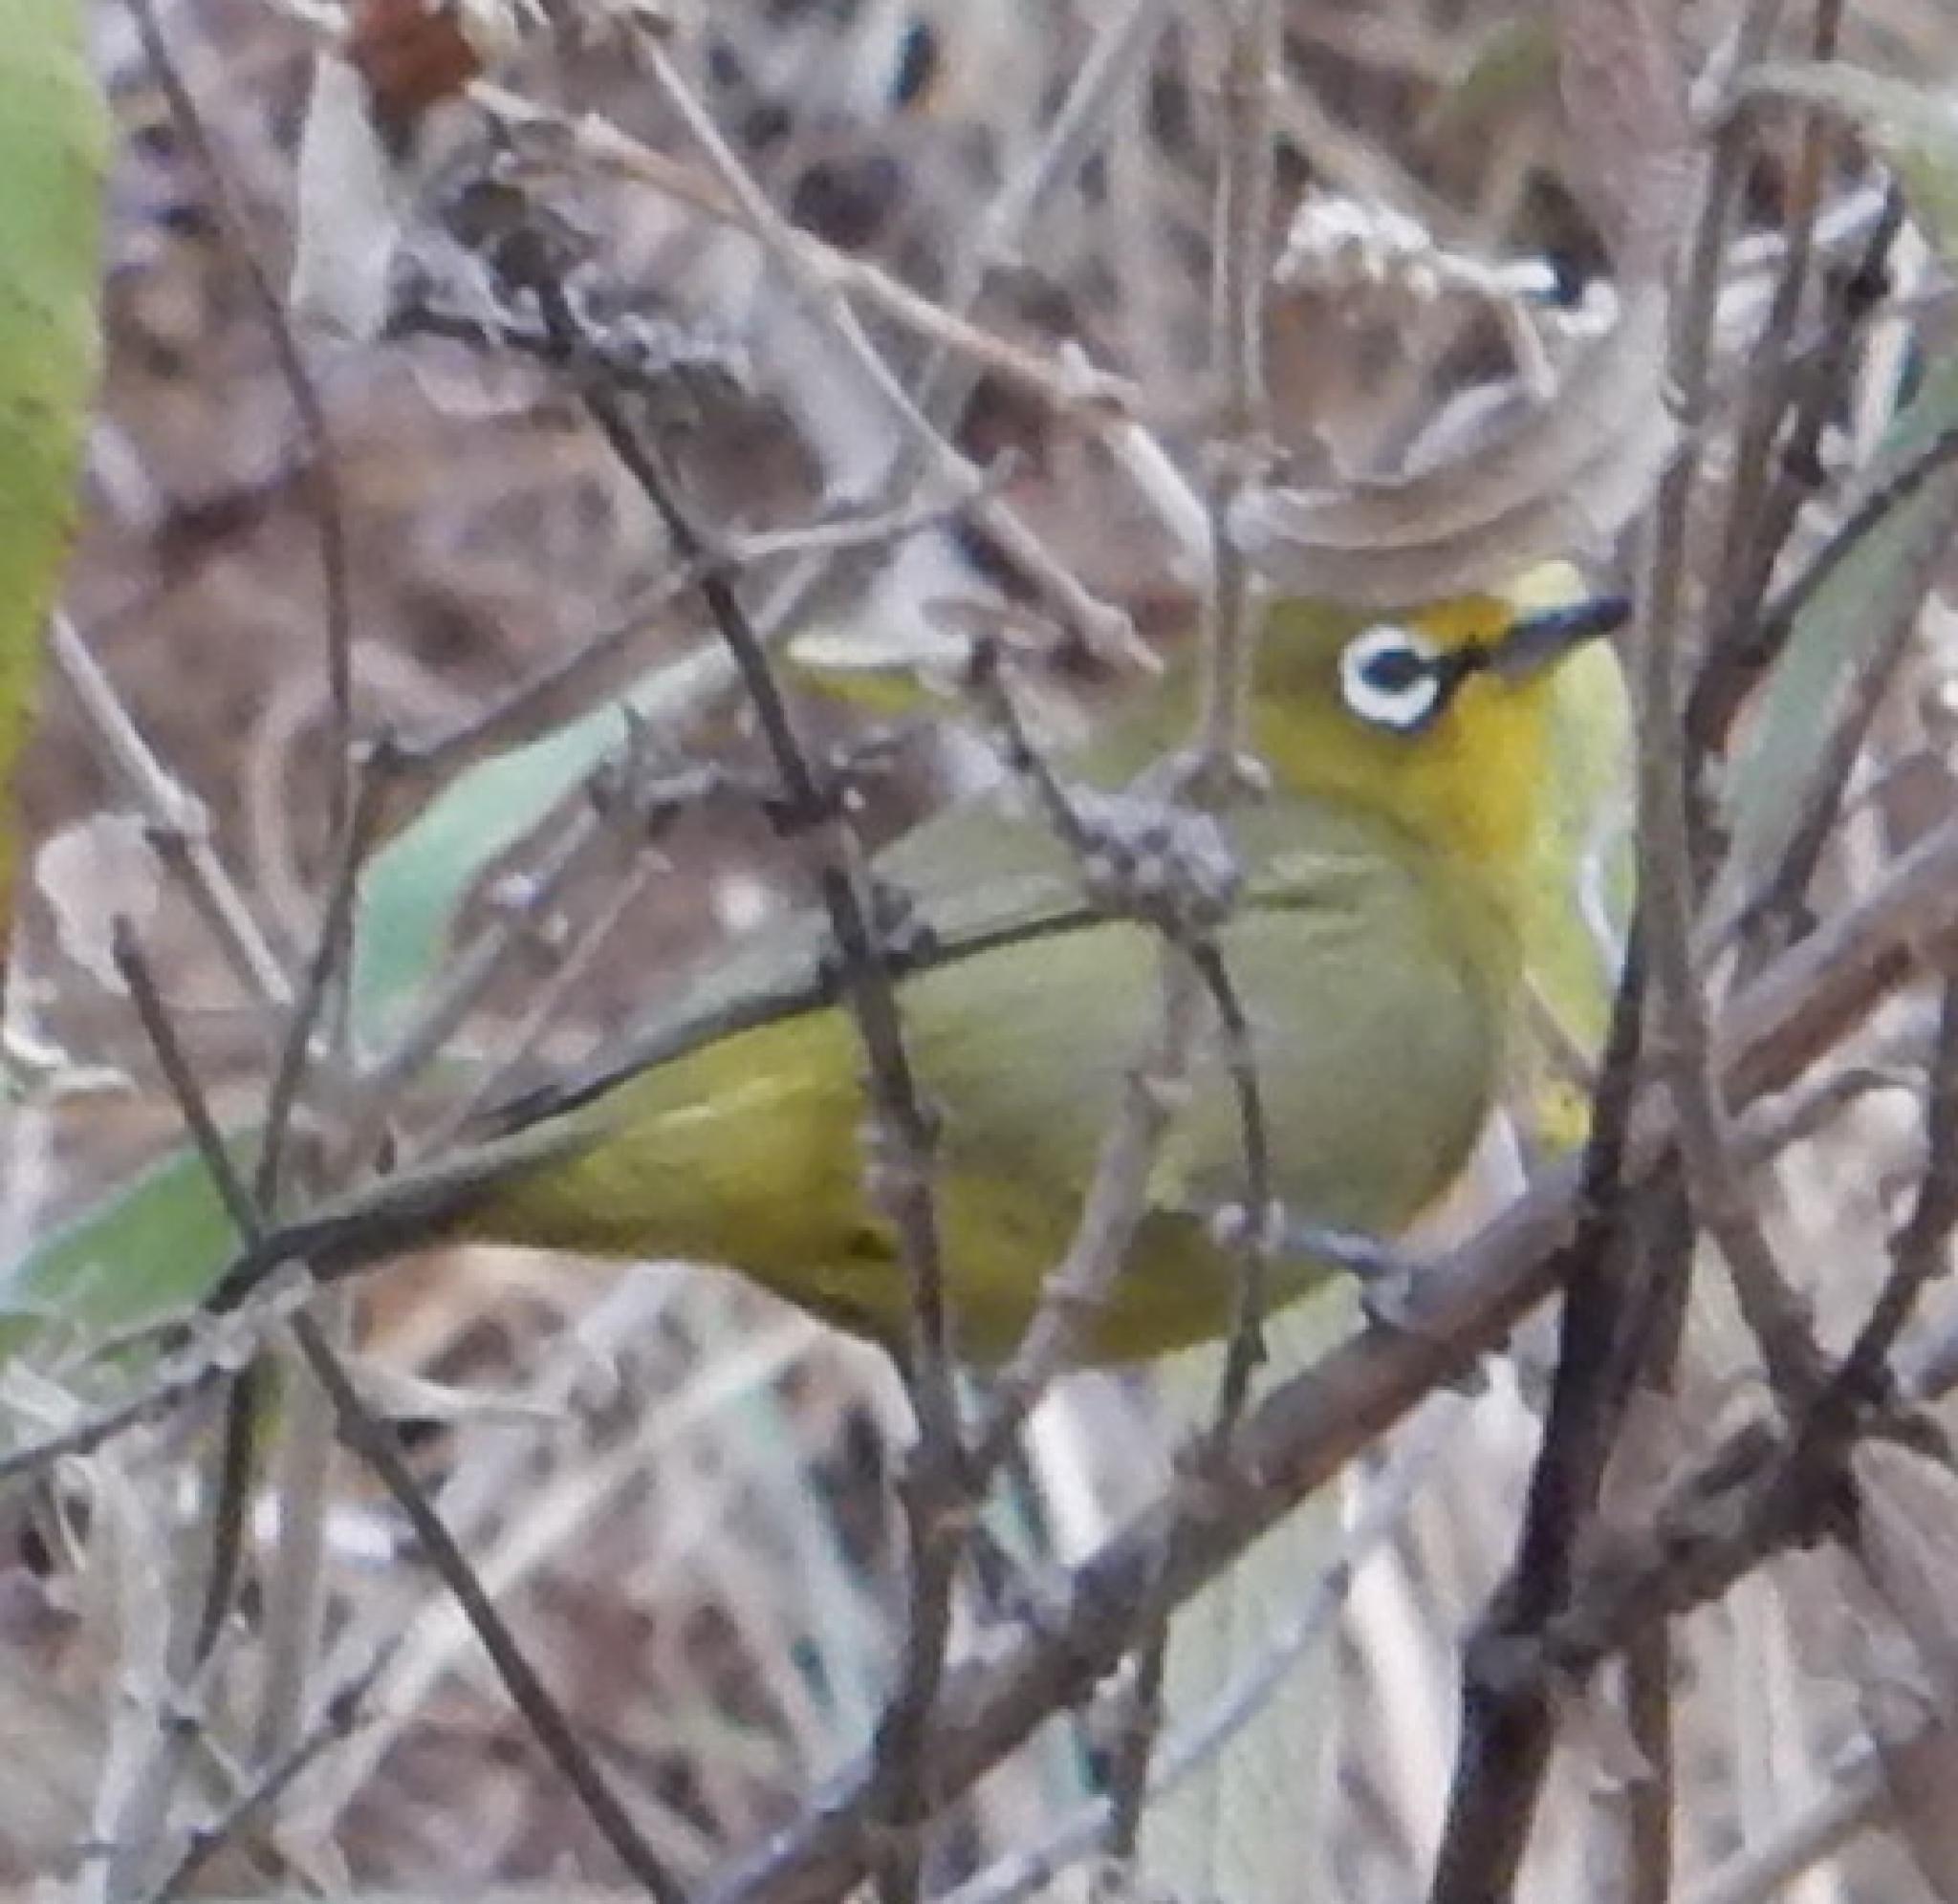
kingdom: Animalia
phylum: Chordata
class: Aves
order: Passeriformes
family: Zosteropidae
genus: Zosterops
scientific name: Zosterops virens
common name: Cape white-eye
